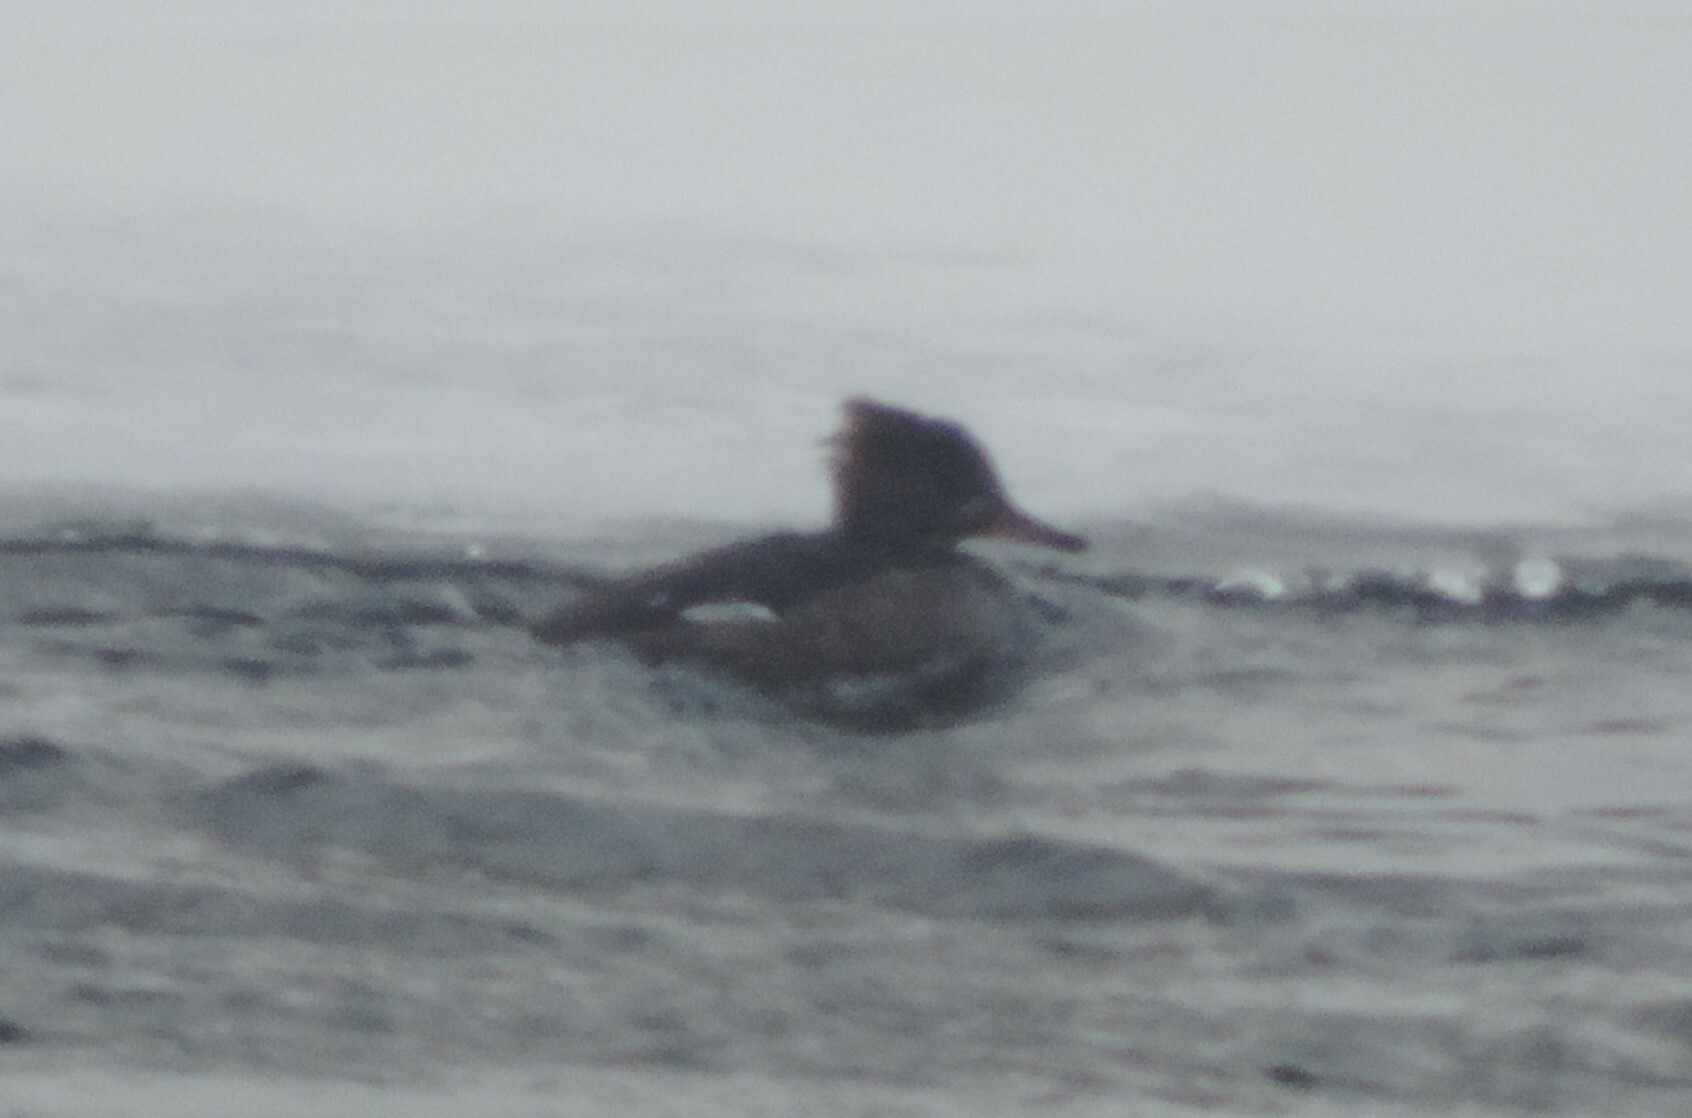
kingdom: Animalia
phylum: Chordata
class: Aves
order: Anseriformes
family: Anatidae
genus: Mergus
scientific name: Mergus serrator
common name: Red-breasted merganser
